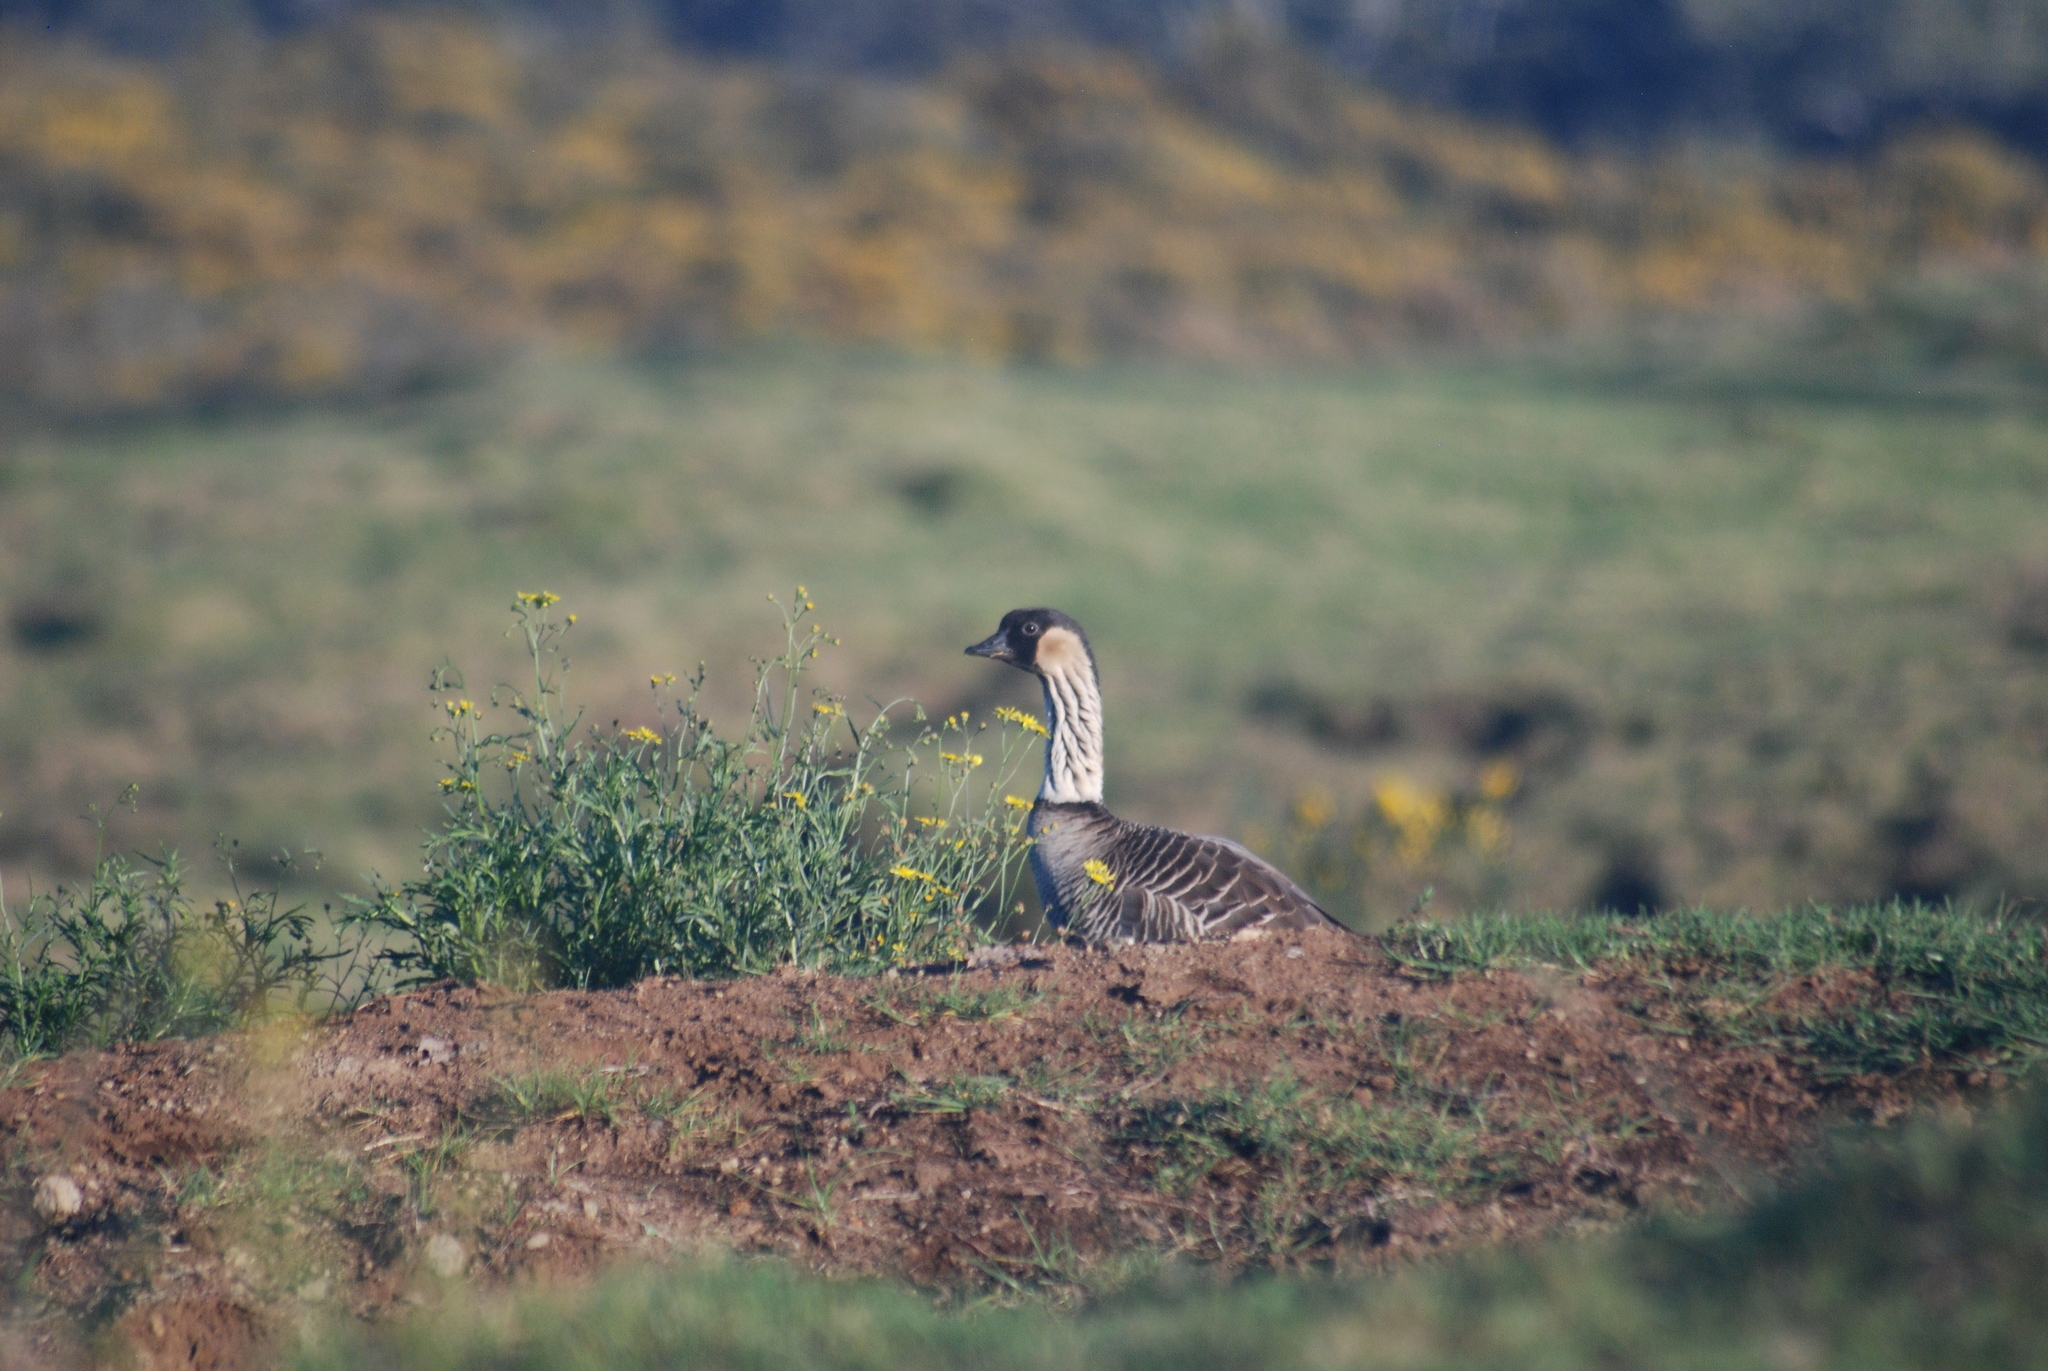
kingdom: Animalia
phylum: Chordata
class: Aves
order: Anseriformes
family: Anatidae
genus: Branta
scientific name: Branta sandvicensis
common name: Nene
